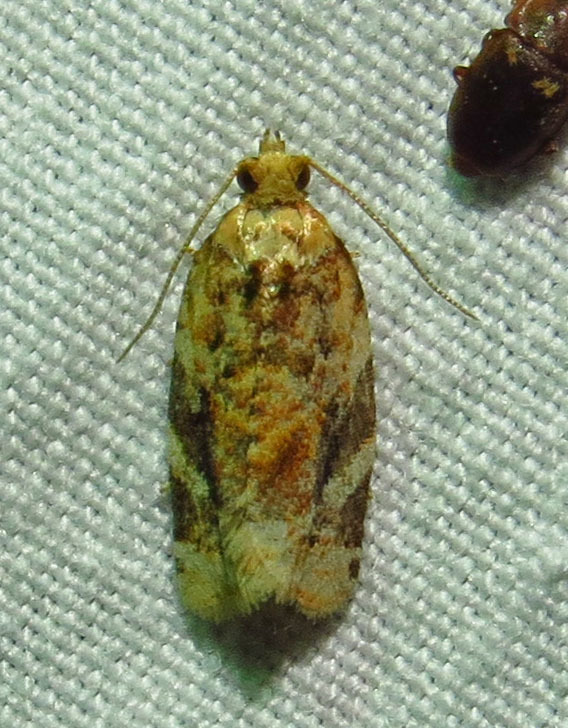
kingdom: Animalia
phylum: Arthropoda
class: Insecta
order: Lepidoptera
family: Tortricidae
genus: Argyrotaenia
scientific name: Argyrotaenia velutinana
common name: Red-banded leafroller moth
